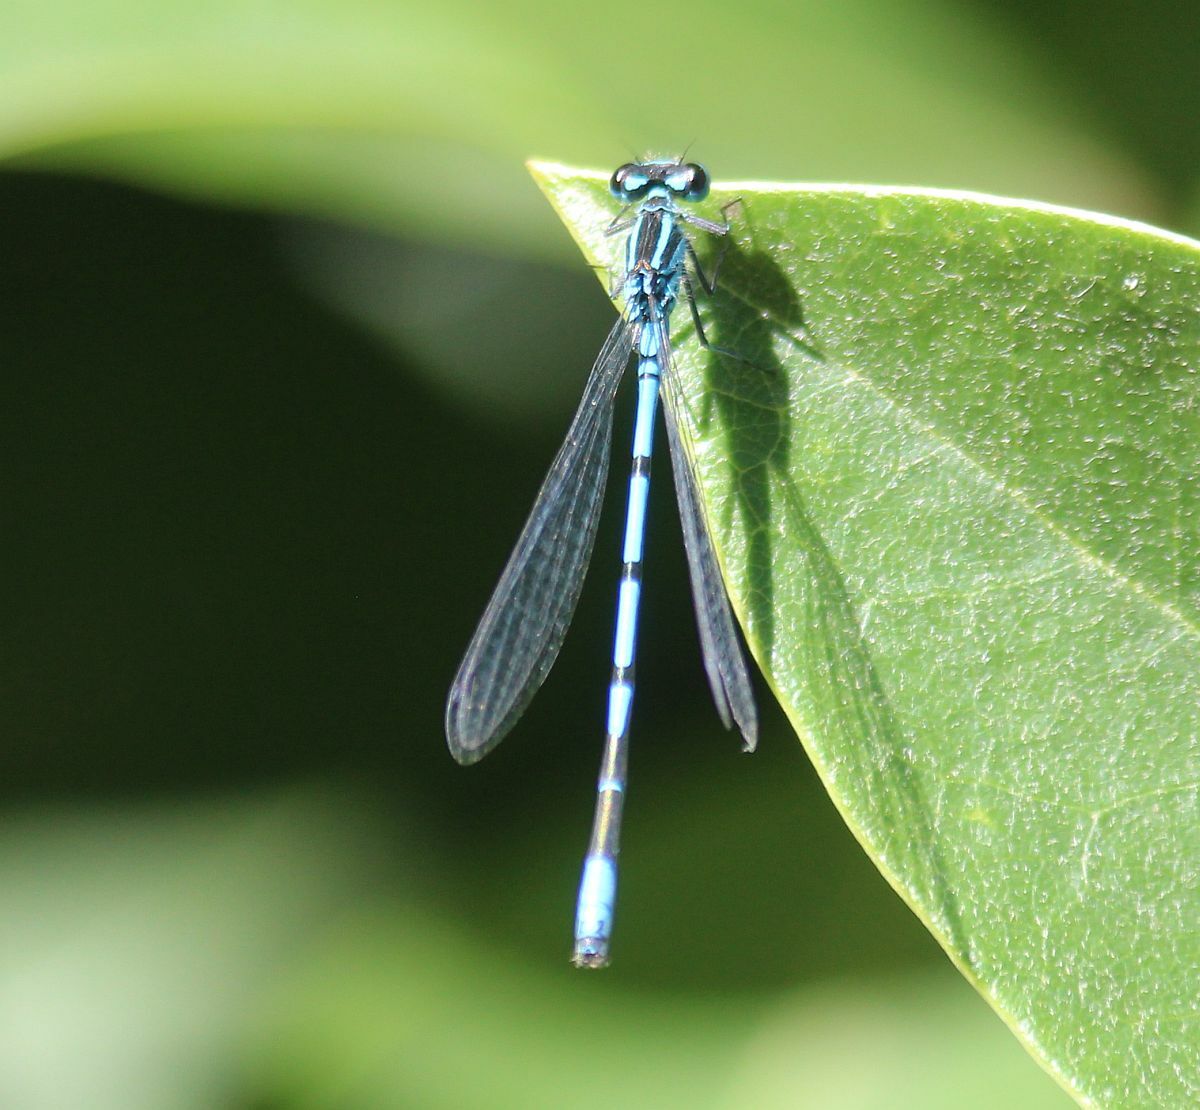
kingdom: Animalia
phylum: Arthropoda
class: Insecta
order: Odonata
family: Coenagrionidae
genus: Coenagrion
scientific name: Coenagrion puella
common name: Azure damselfly
